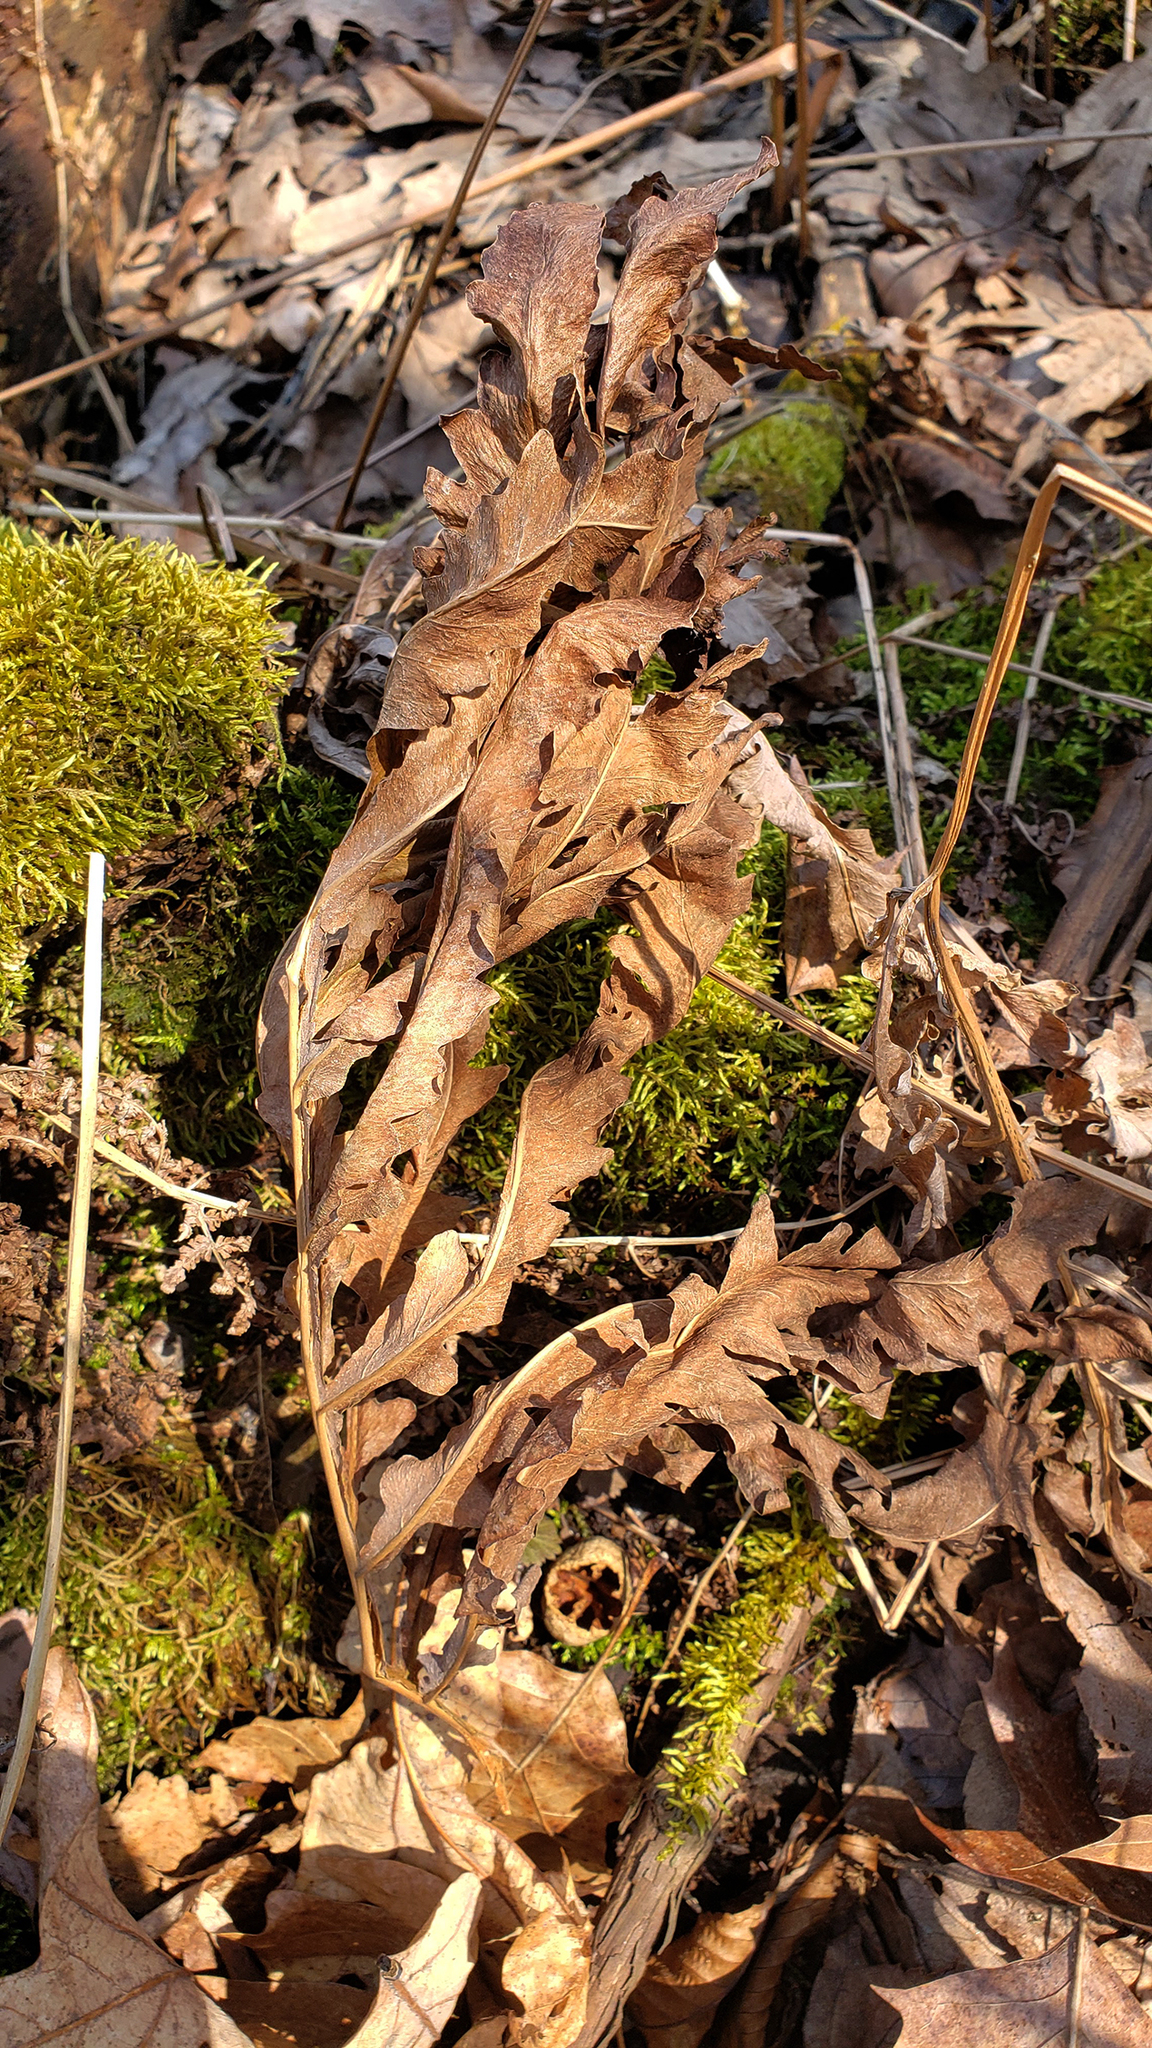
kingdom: Plantae
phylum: Tracheophyta
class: Polypodiopsida
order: Polypodiales
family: Onocleaceae
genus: Onoclea
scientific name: Onoclea sensibilis
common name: Sensitive fern
